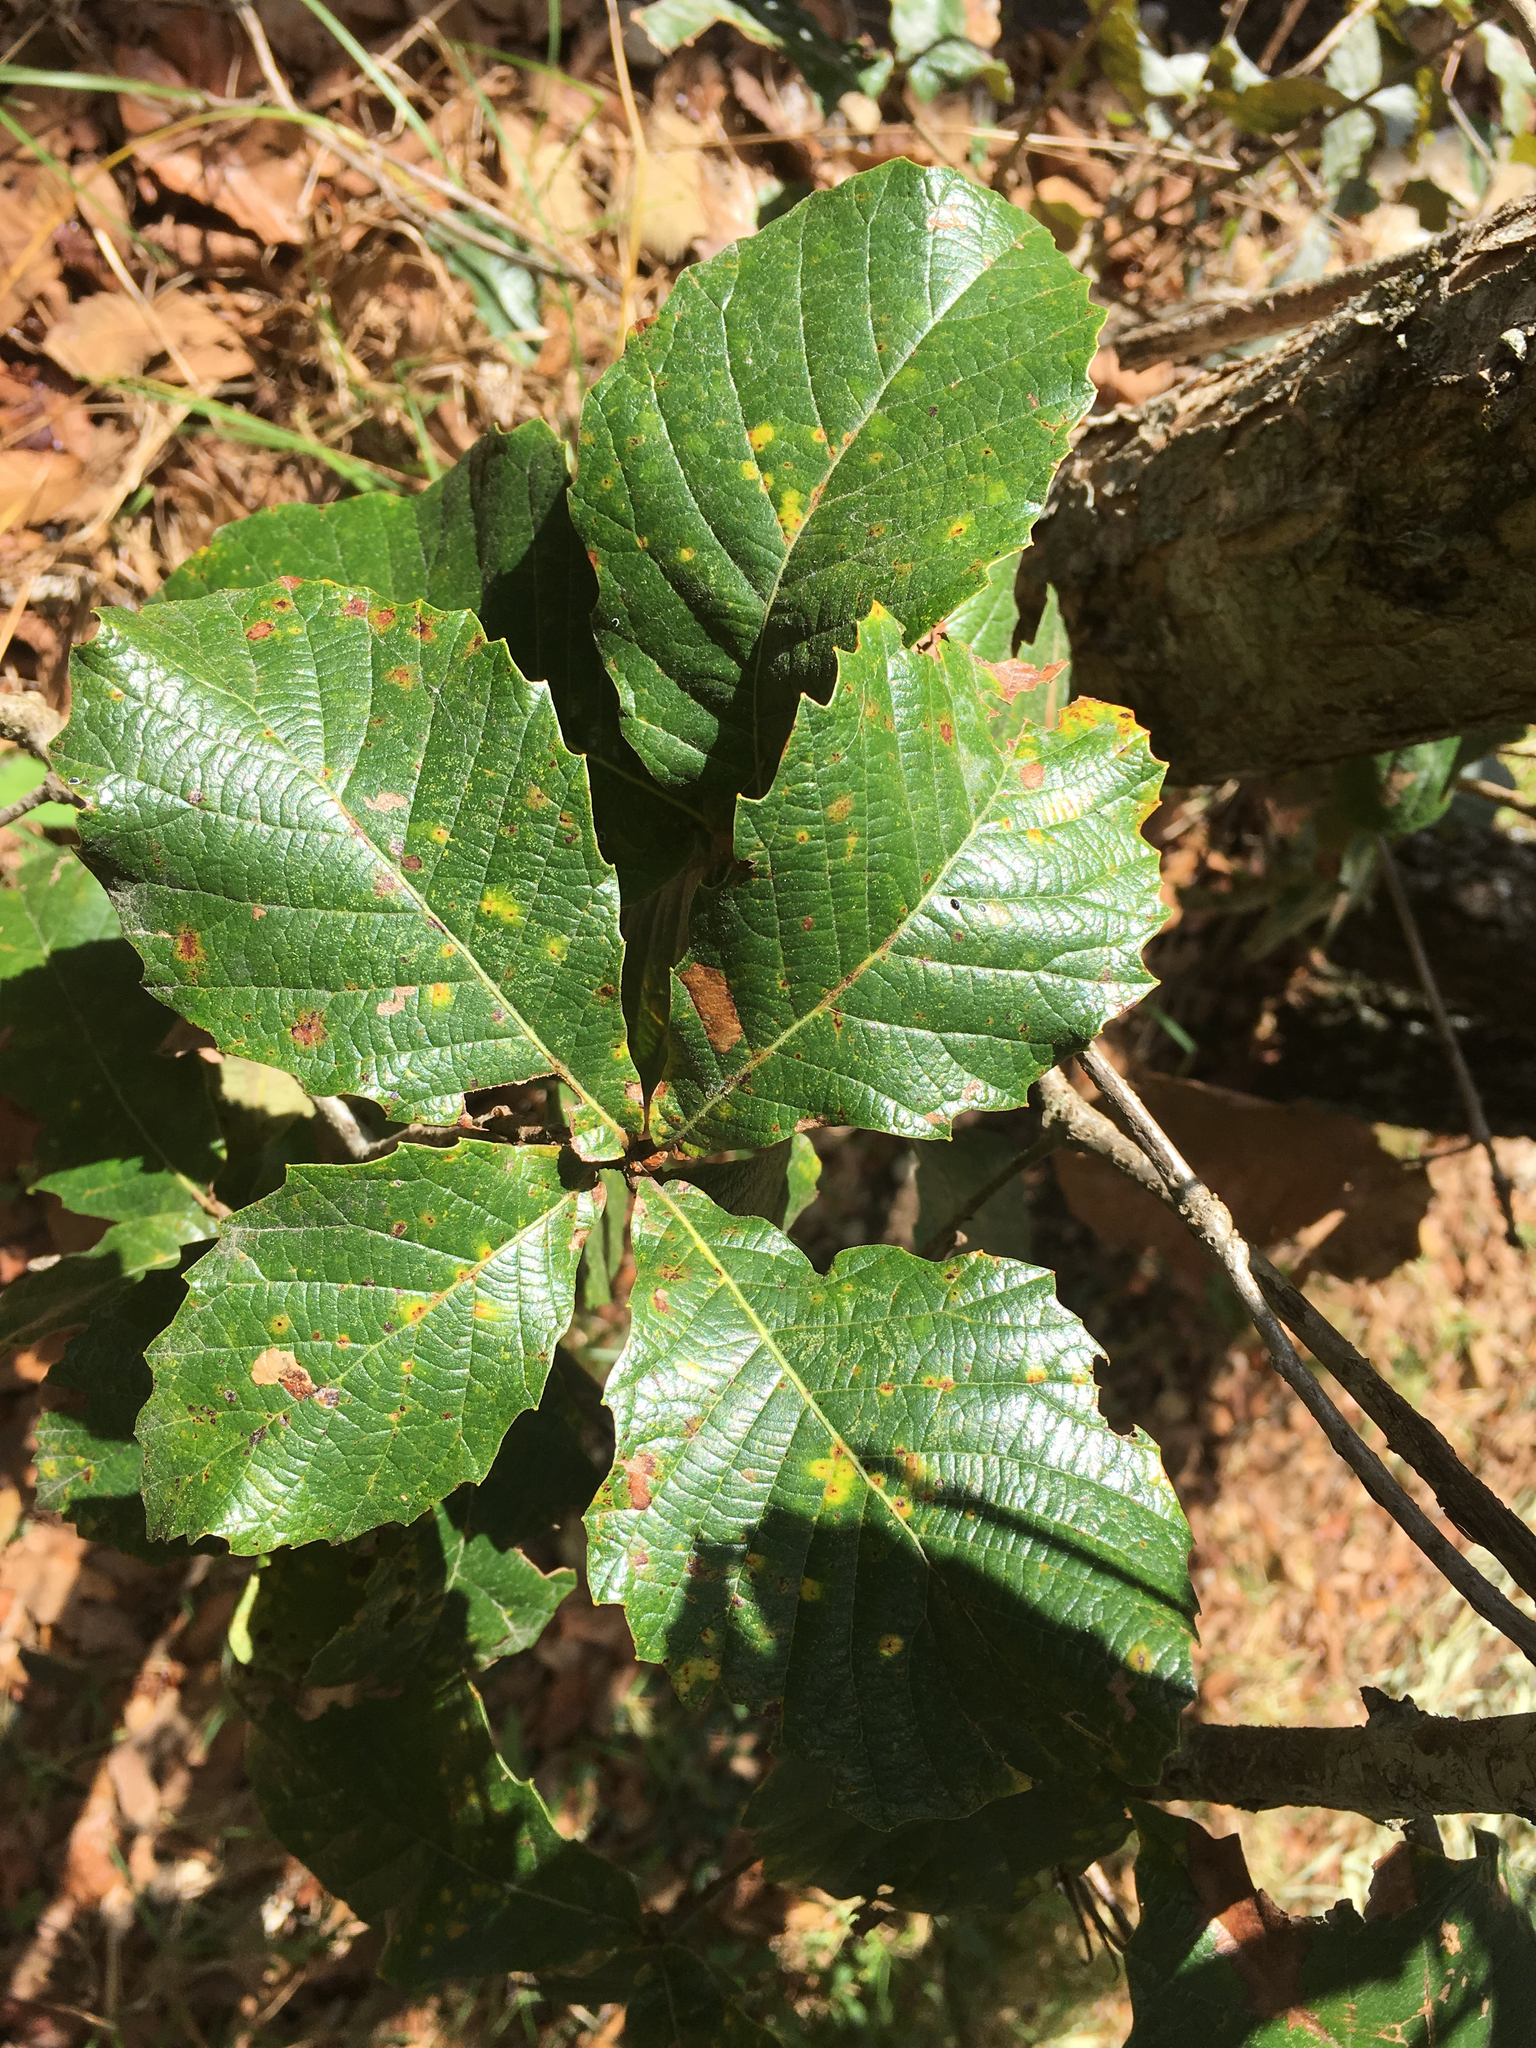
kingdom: Plantae
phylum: Tracheophyta
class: Magnoliopsida
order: Fagales
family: Fagaceae
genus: Quercus
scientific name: Quercus segoviensis
